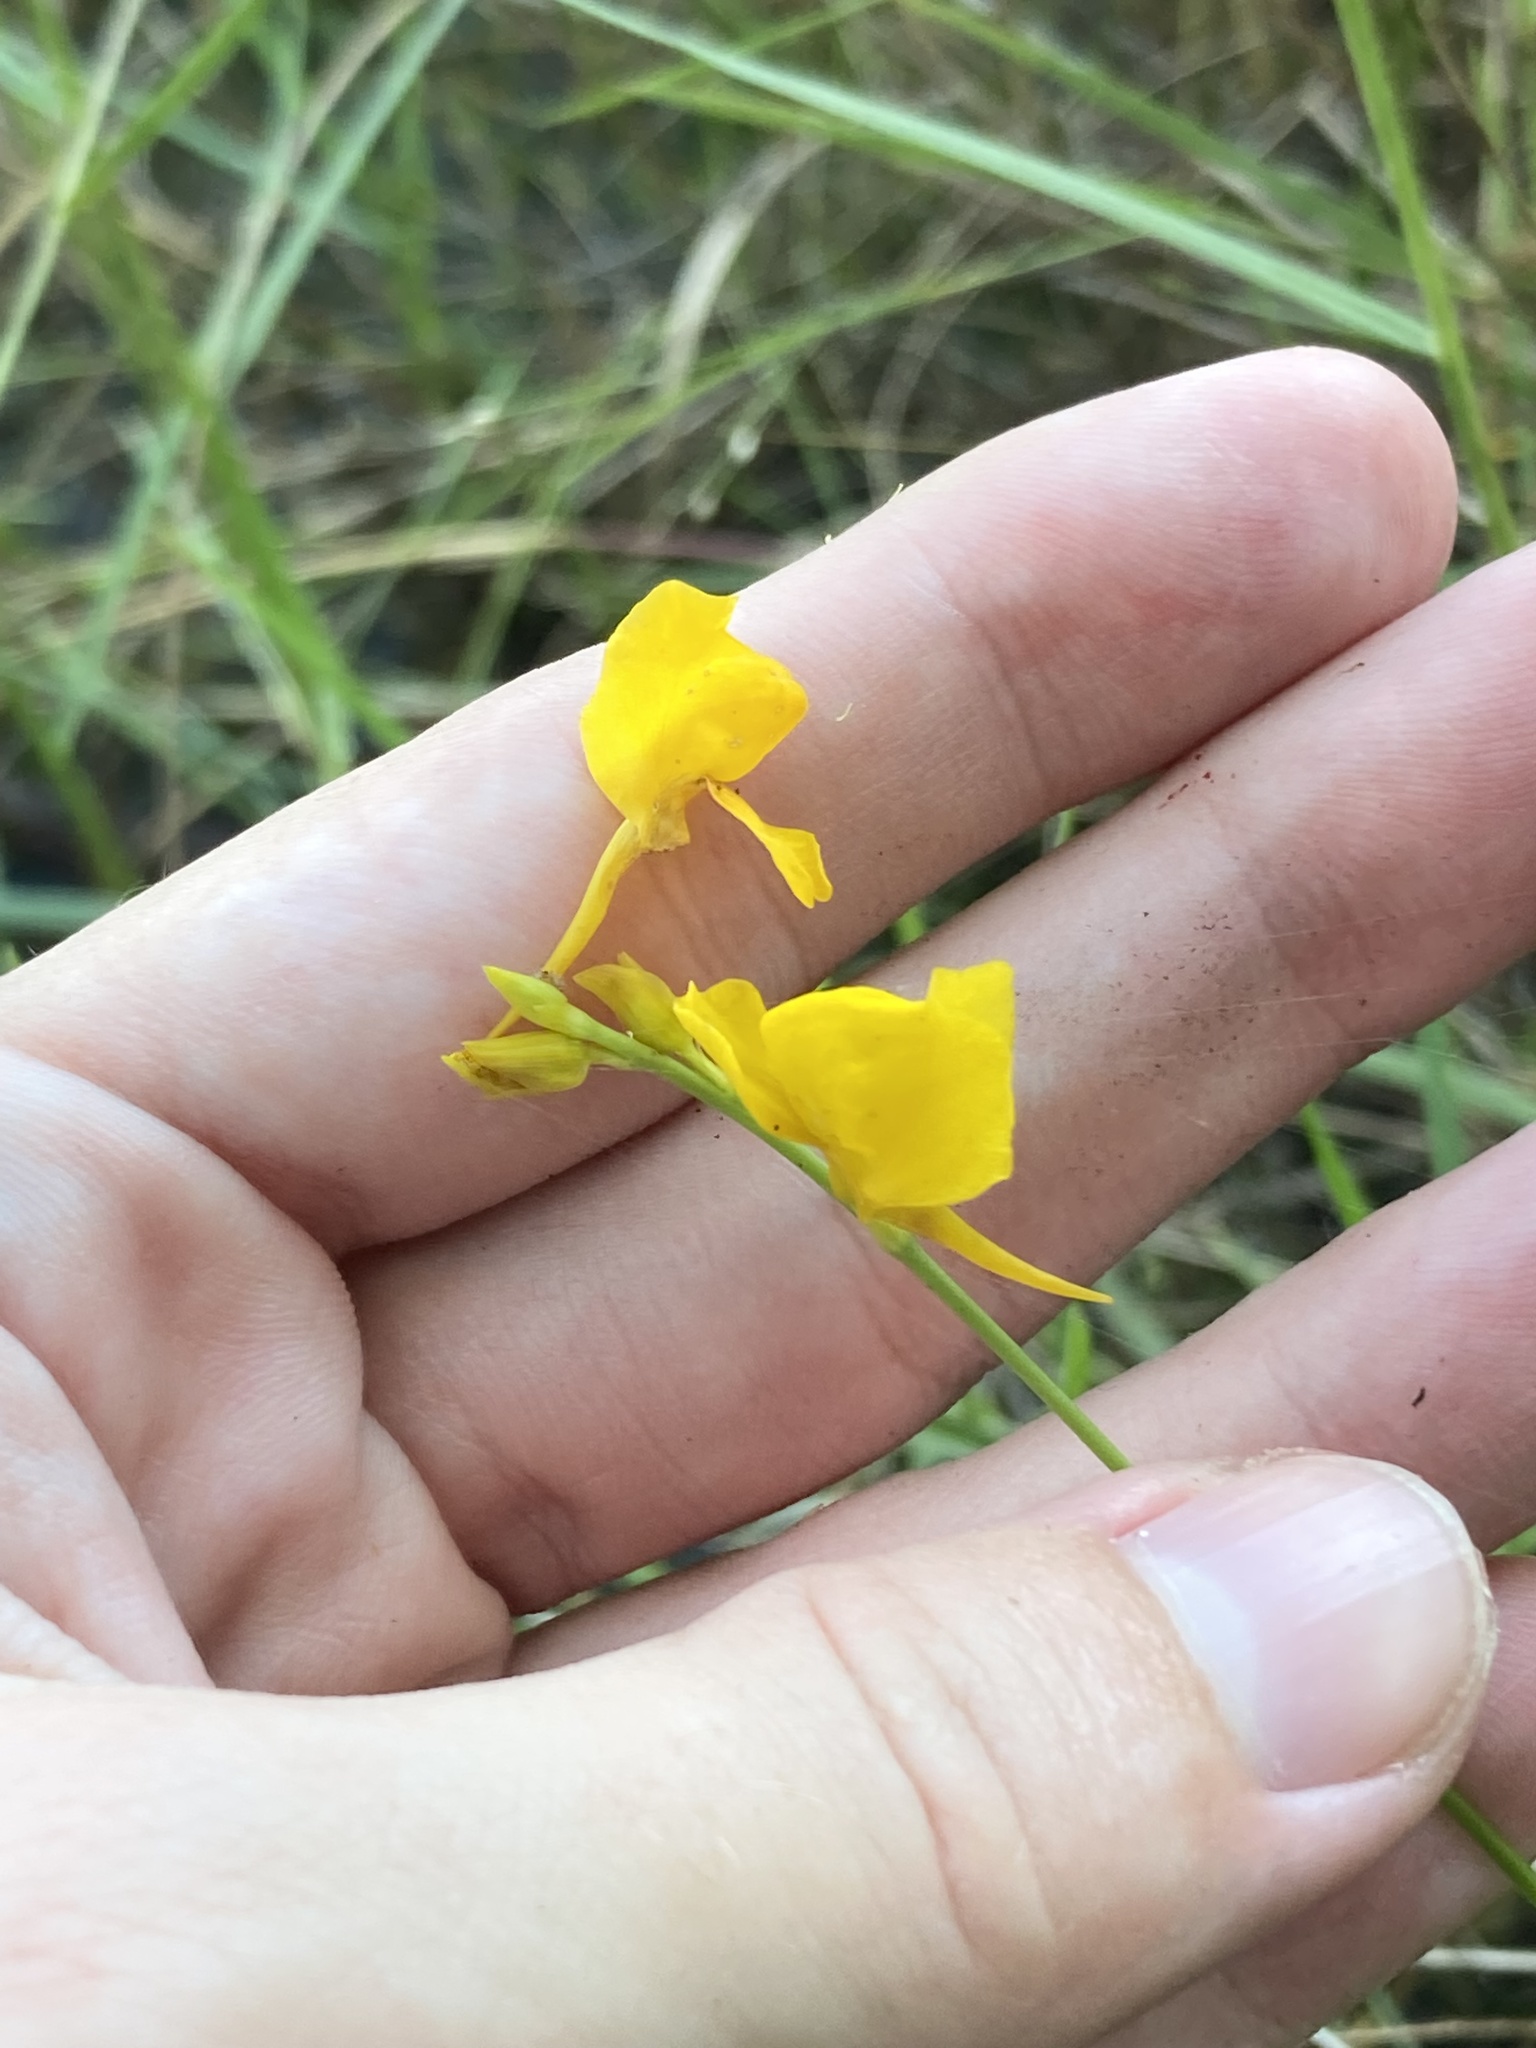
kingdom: Plantae
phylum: Tracheophyta
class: Magnoliopsida
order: Lamiales
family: Lentibulariaceae
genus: Utricularia
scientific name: Utricularia cornuta
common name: Horned bladderwort
